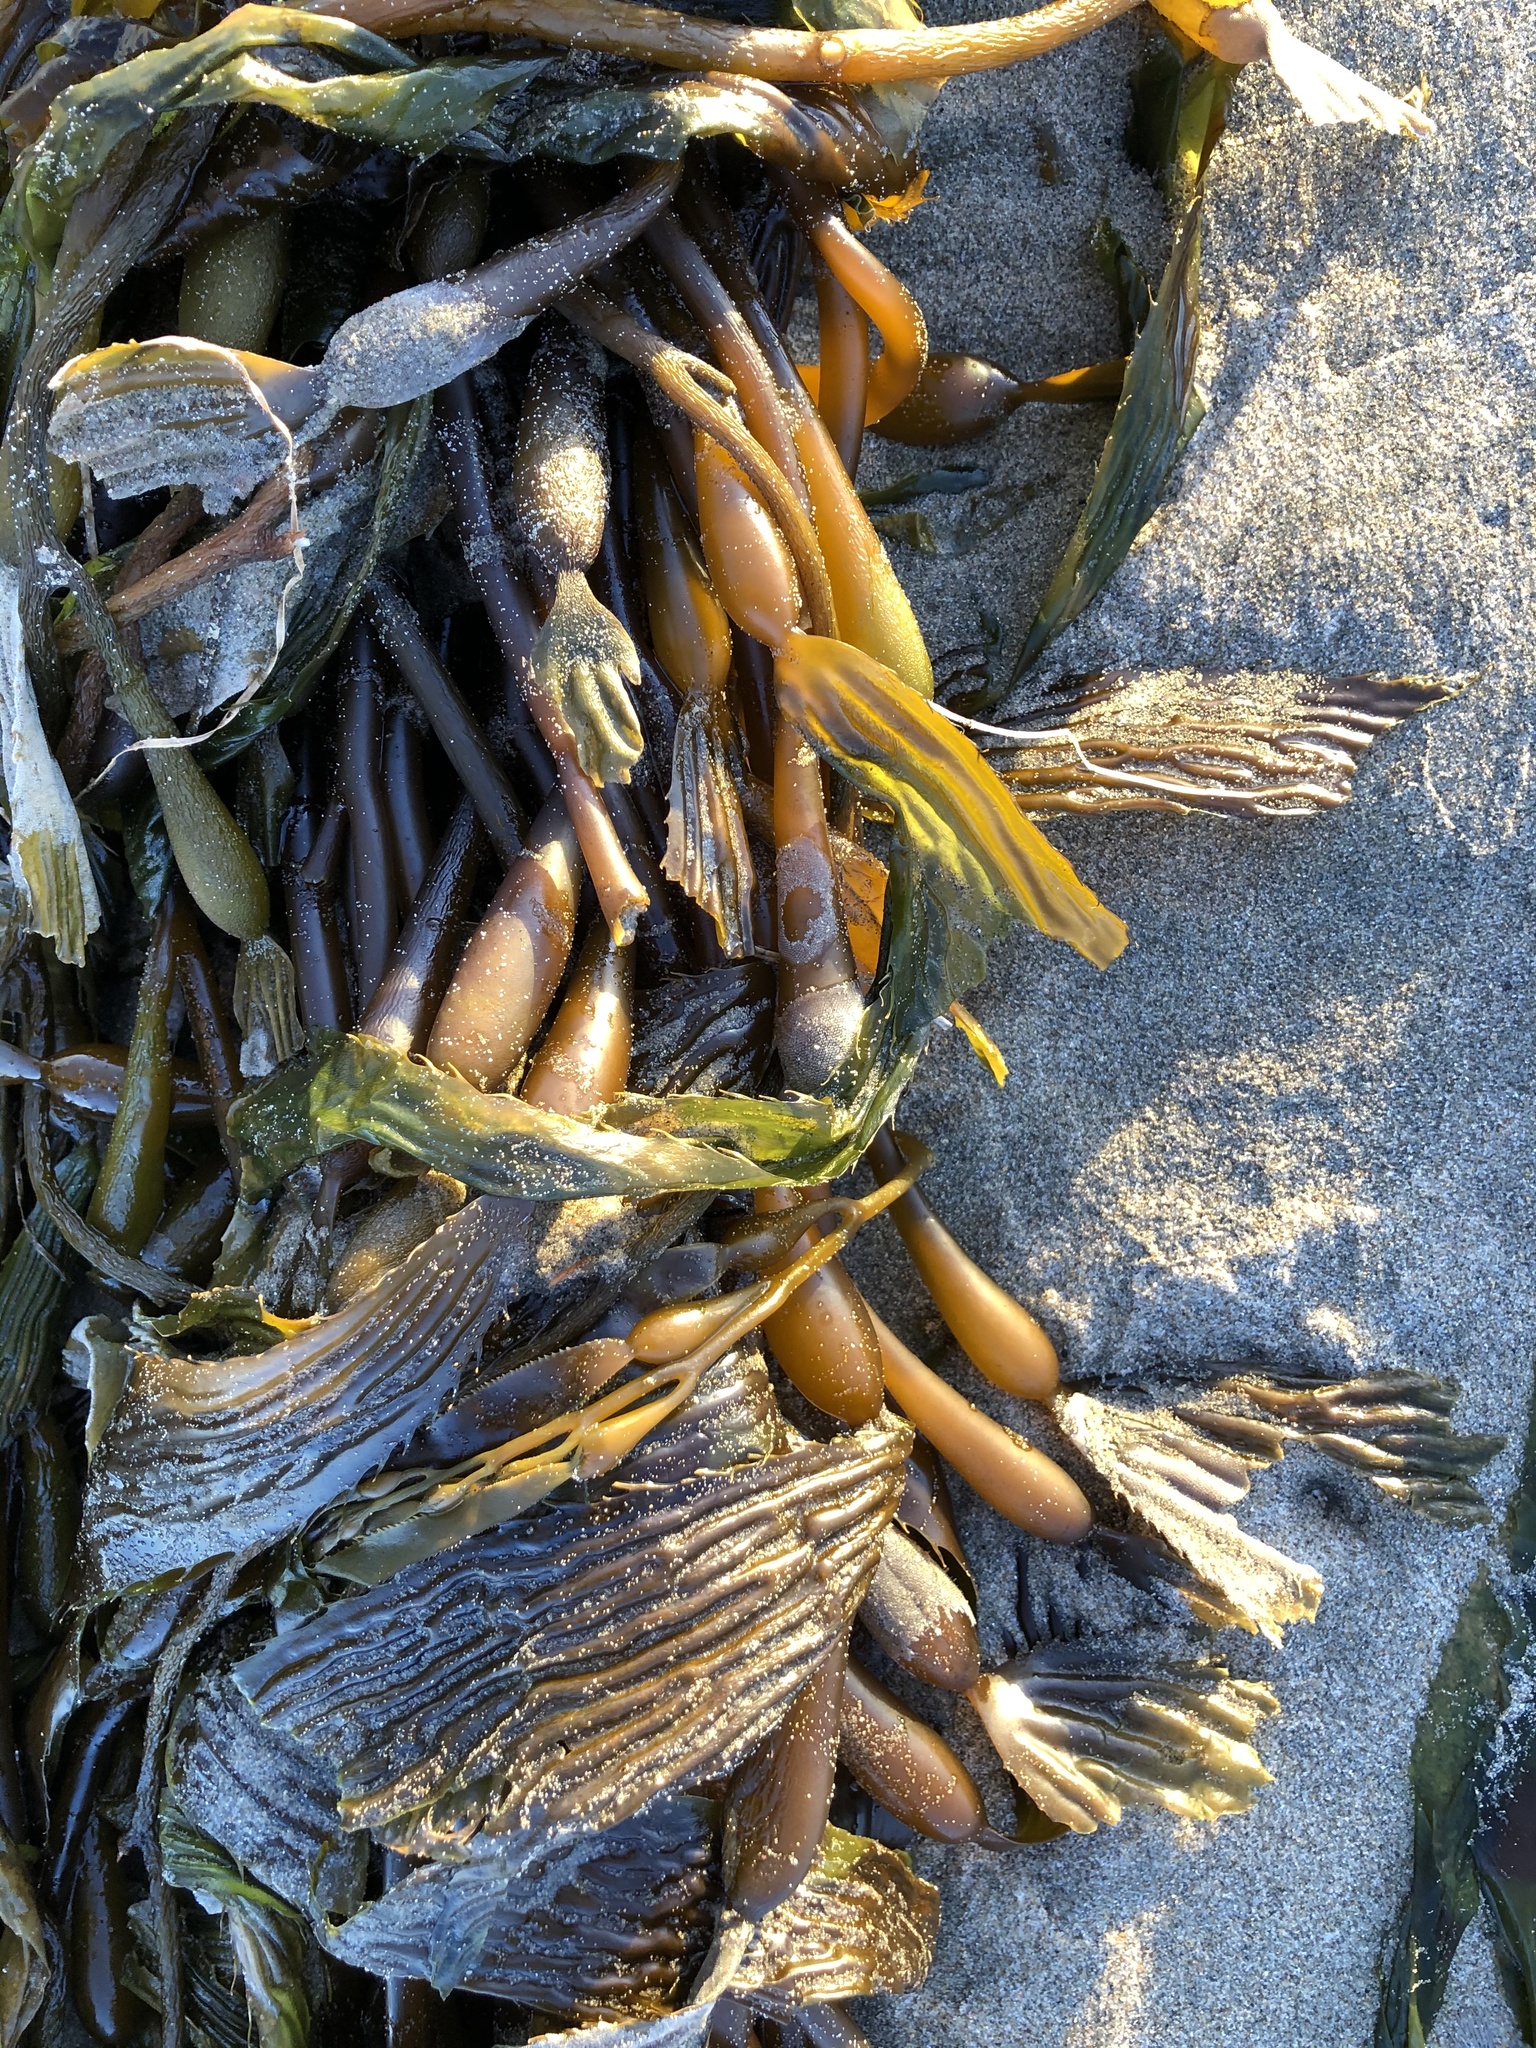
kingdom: Chromista
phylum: Ochrophyta
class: Phaeophyceae
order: Laminariales
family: Laminariaceae
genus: Macrocystis
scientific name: Macrocystis pyrifera
